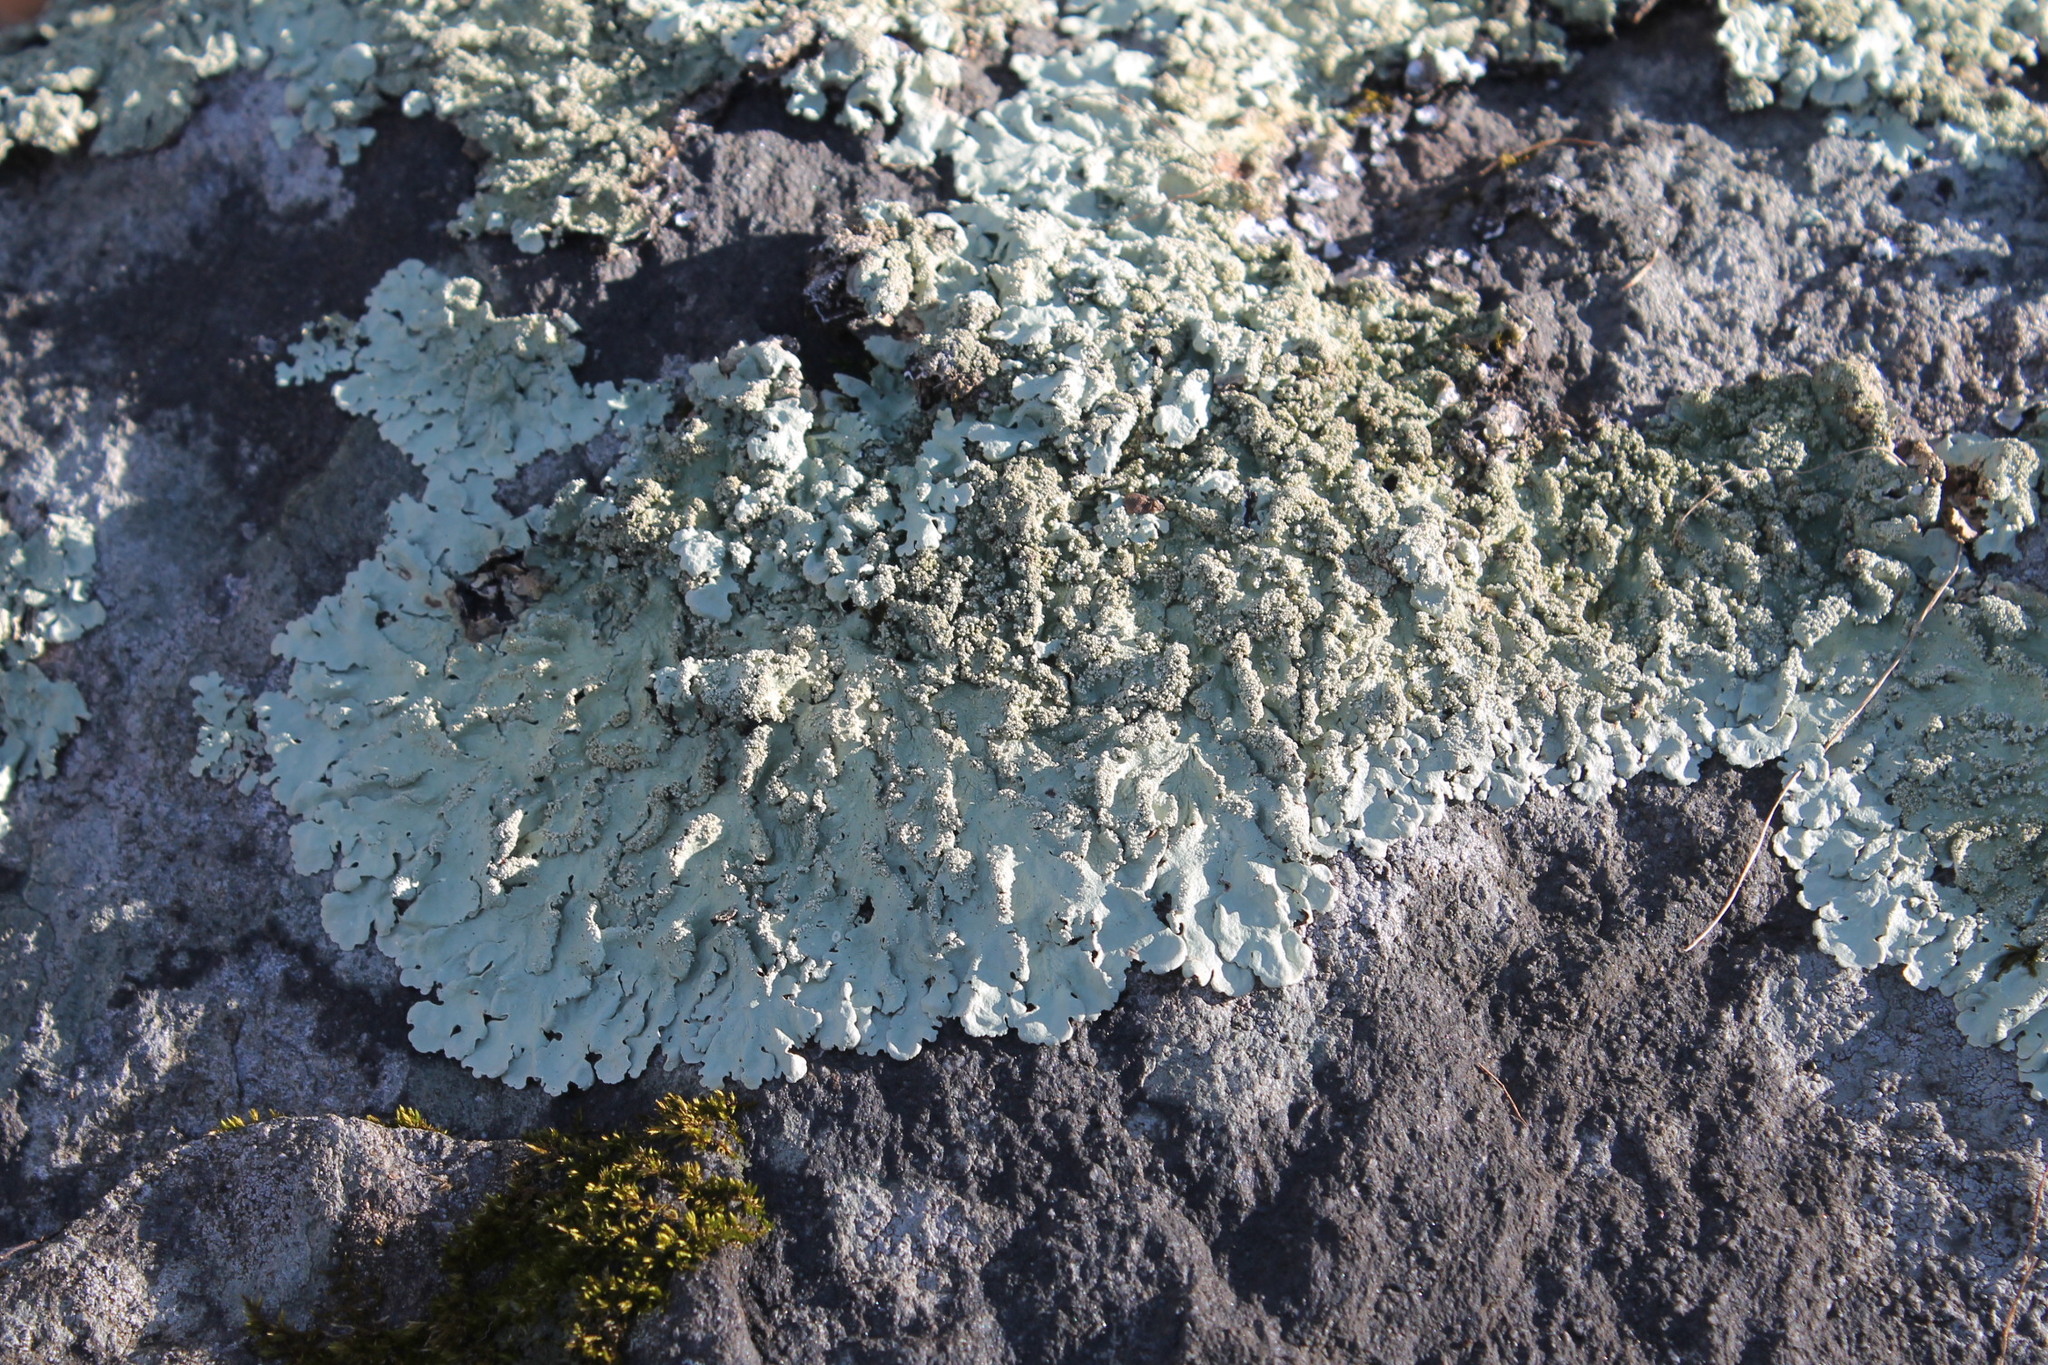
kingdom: Fungi
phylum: Ascomycota
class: Lecanoromycetes
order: Lecanorales
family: Parmeliaceae
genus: Flavoparmelia
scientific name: Flavoparmelia baltimorensis
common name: Rock greenshield
